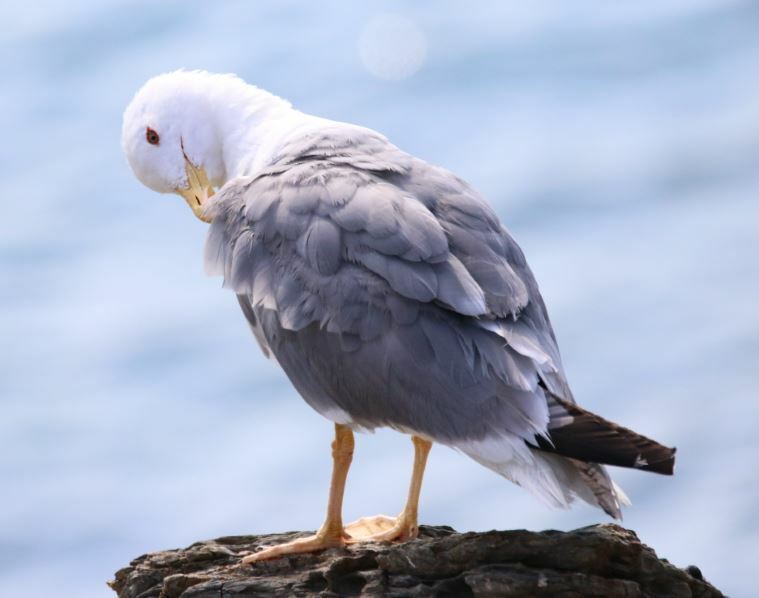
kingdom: Animalia
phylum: Chordata
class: Aves
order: Charadriiformes
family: Laridae
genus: Larus
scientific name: Larus michahellis
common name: Yellow-legged gull
